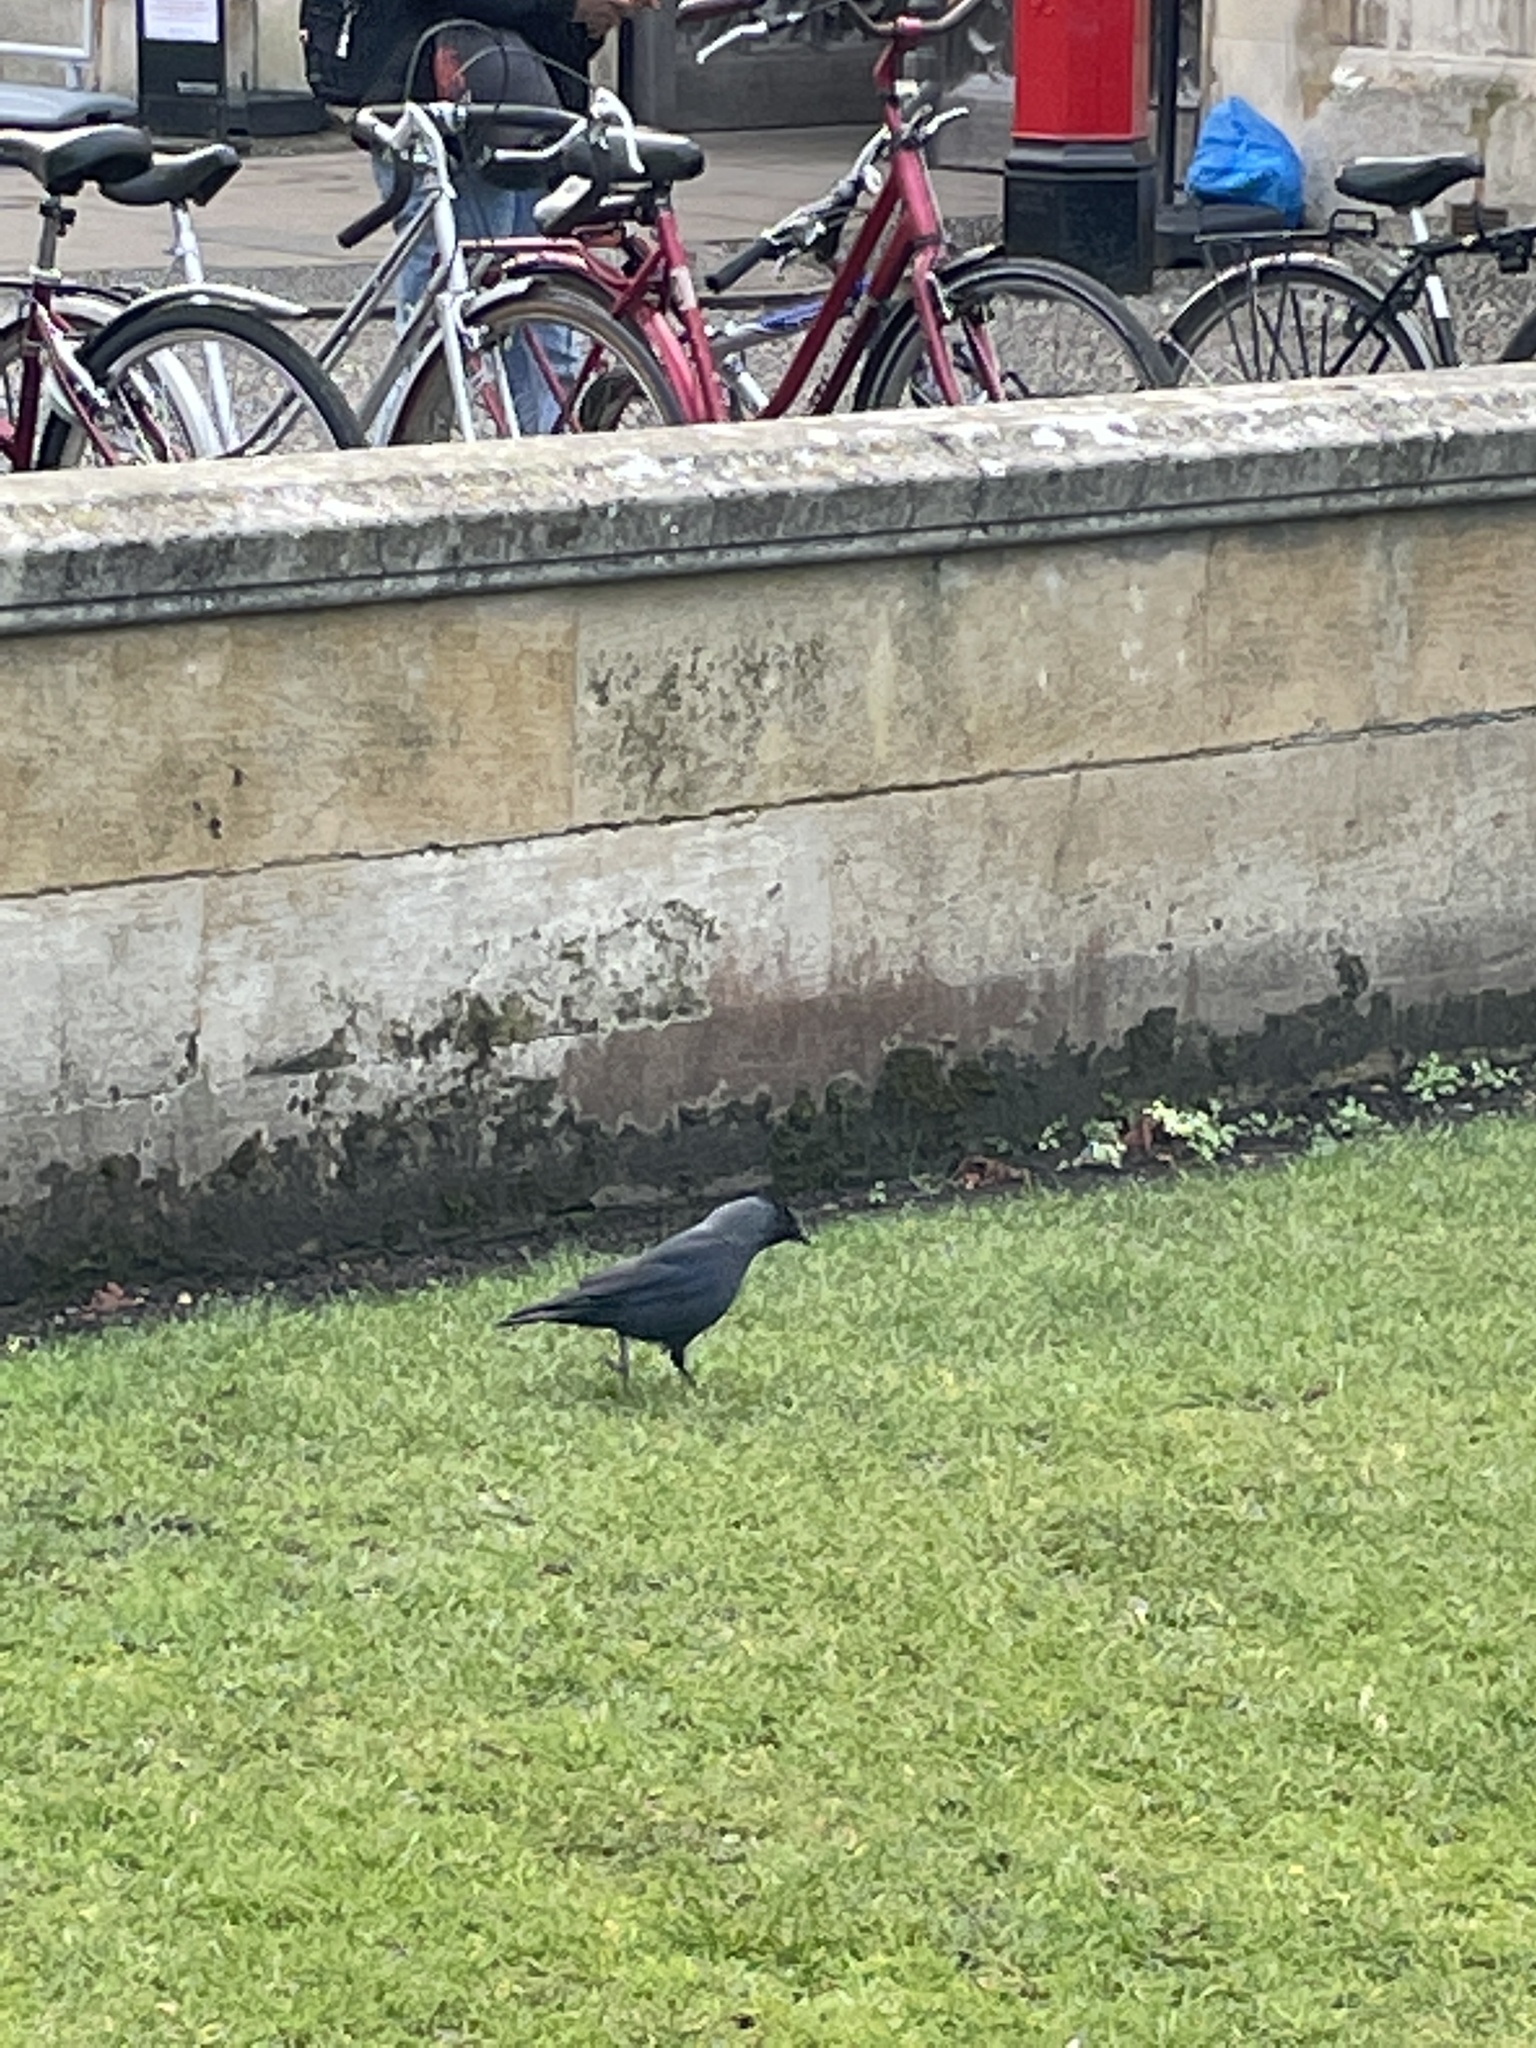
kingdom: Animalia
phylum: Chordata
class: Aves
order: Passeriformes
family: Corvidae
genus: Coloeus
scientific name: Coloeus monedula
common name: Western jackdaw
